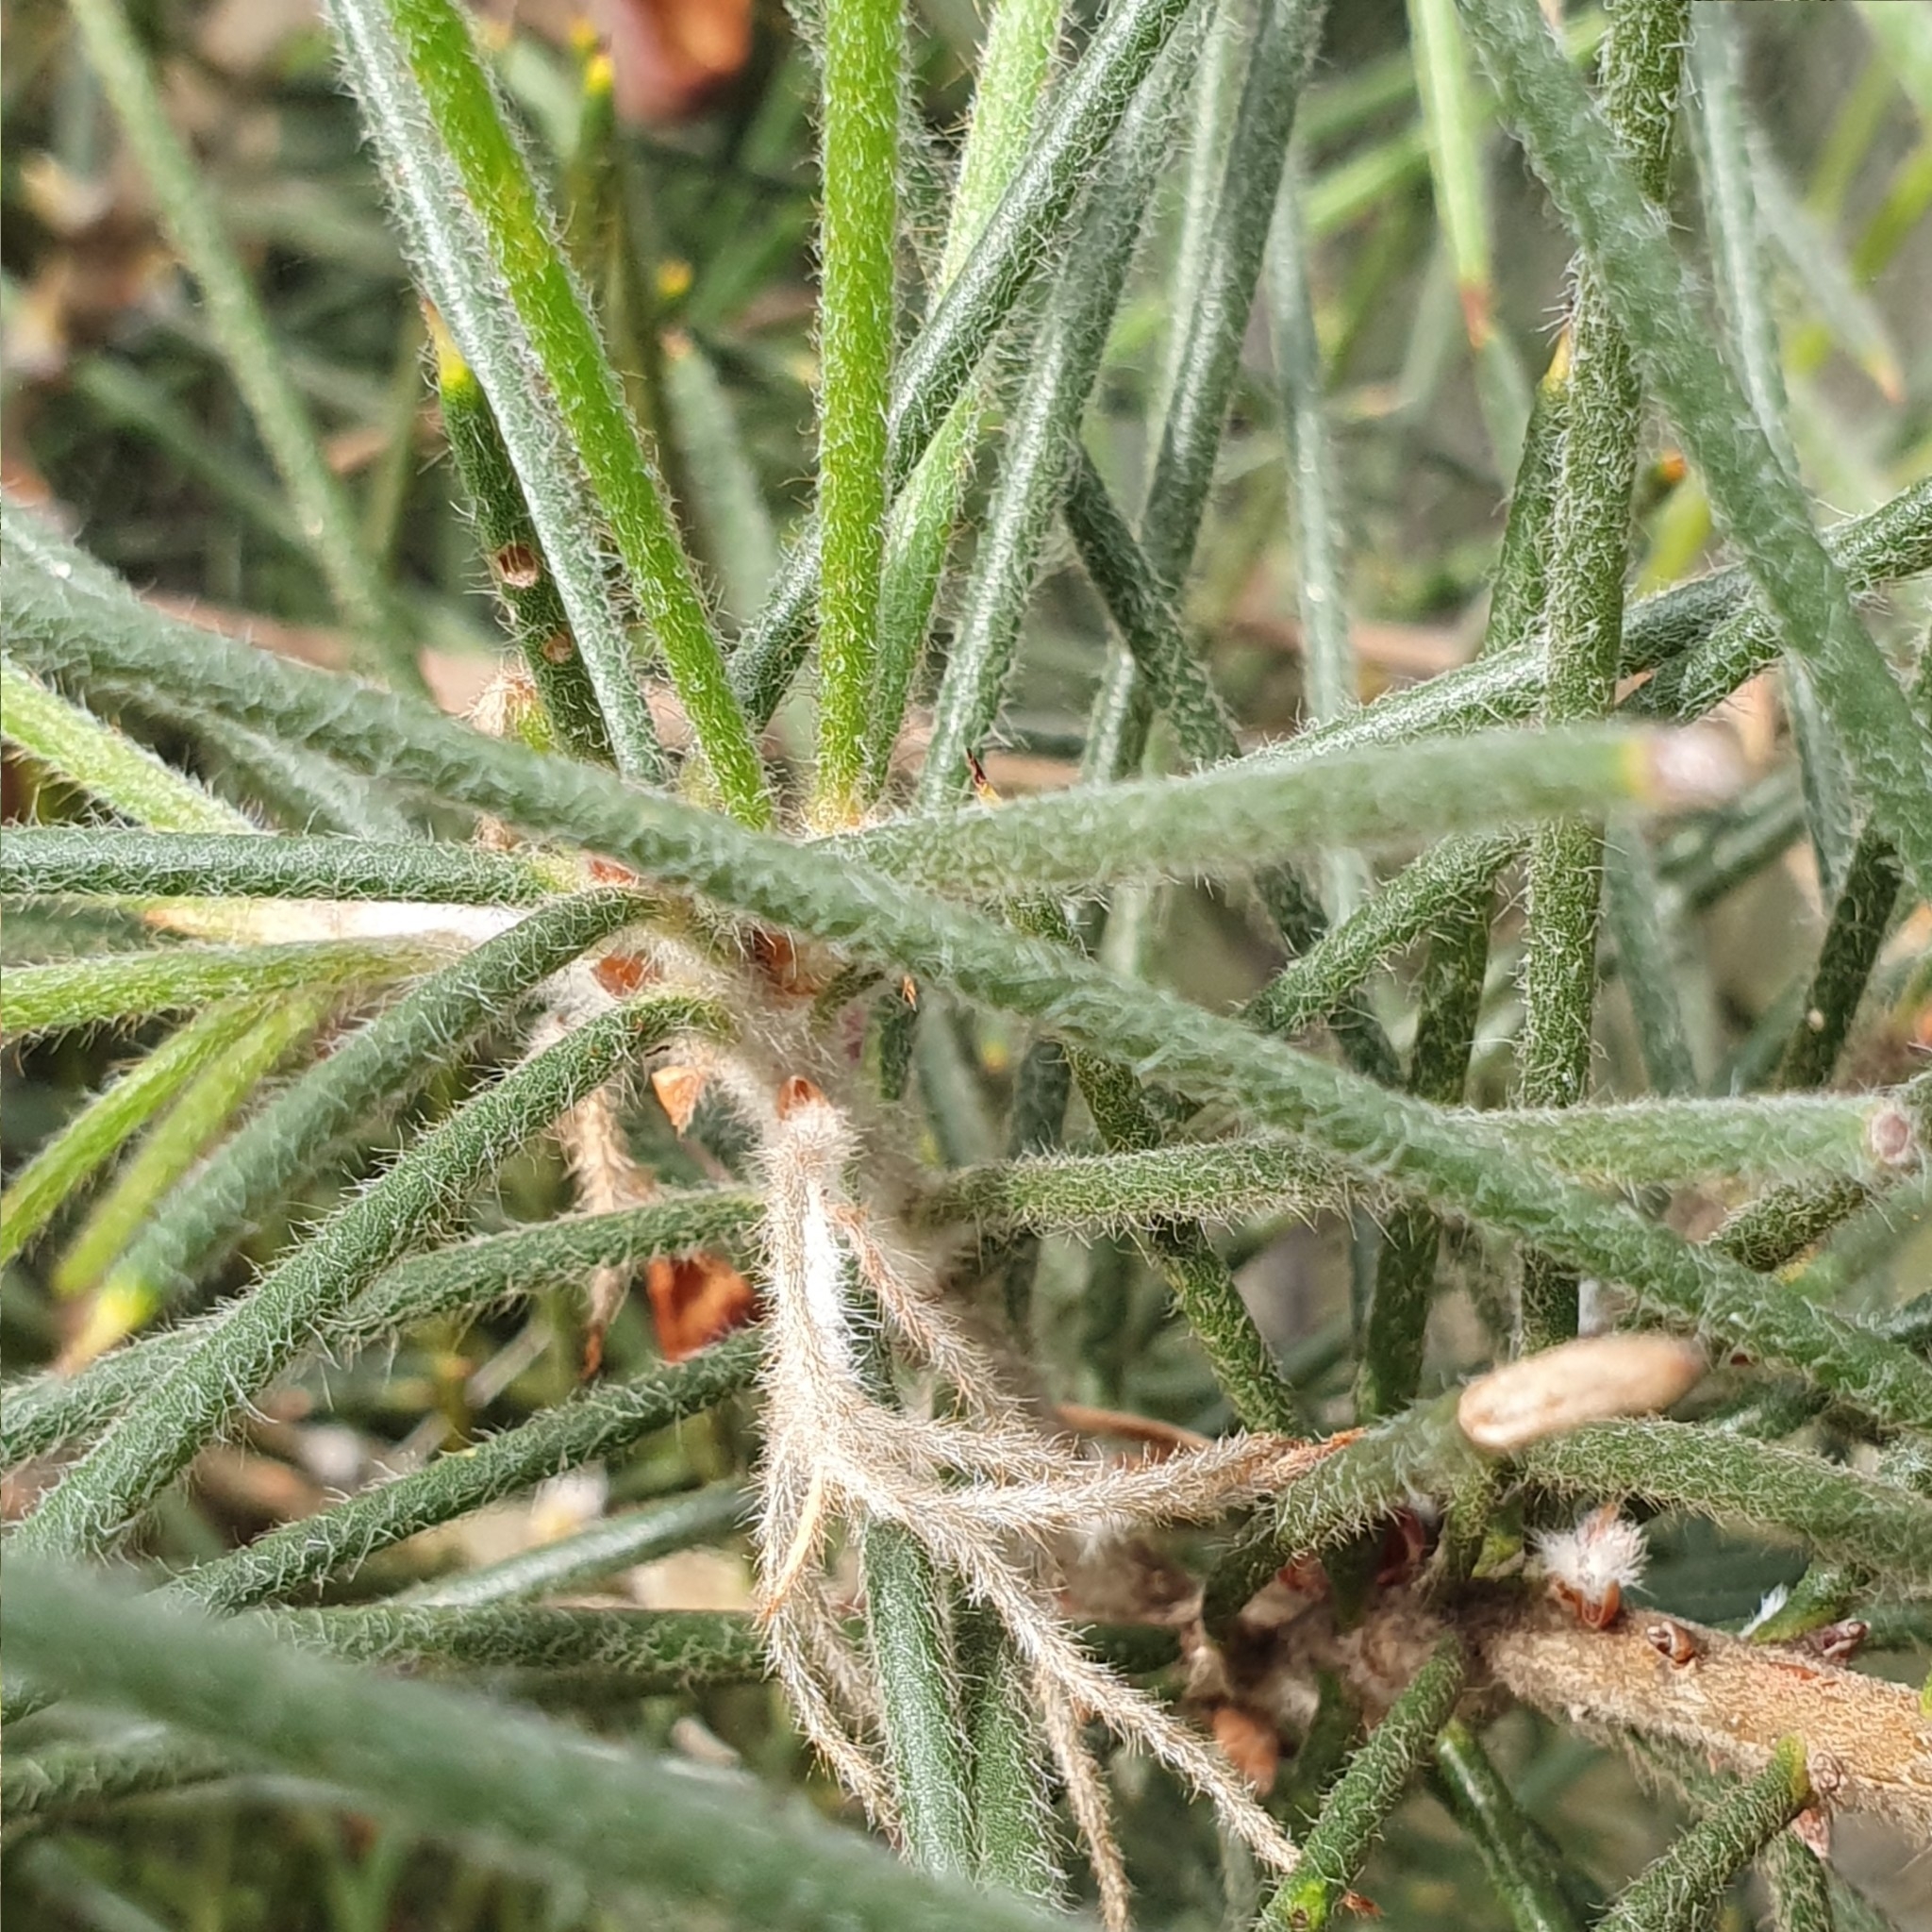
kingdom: Plantae
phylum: Tracheophyta
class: Magnoliopsida
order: Proteales
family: Proteaceae
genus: Hakea
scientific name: Hakea gibbosa
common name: Rock hakea
